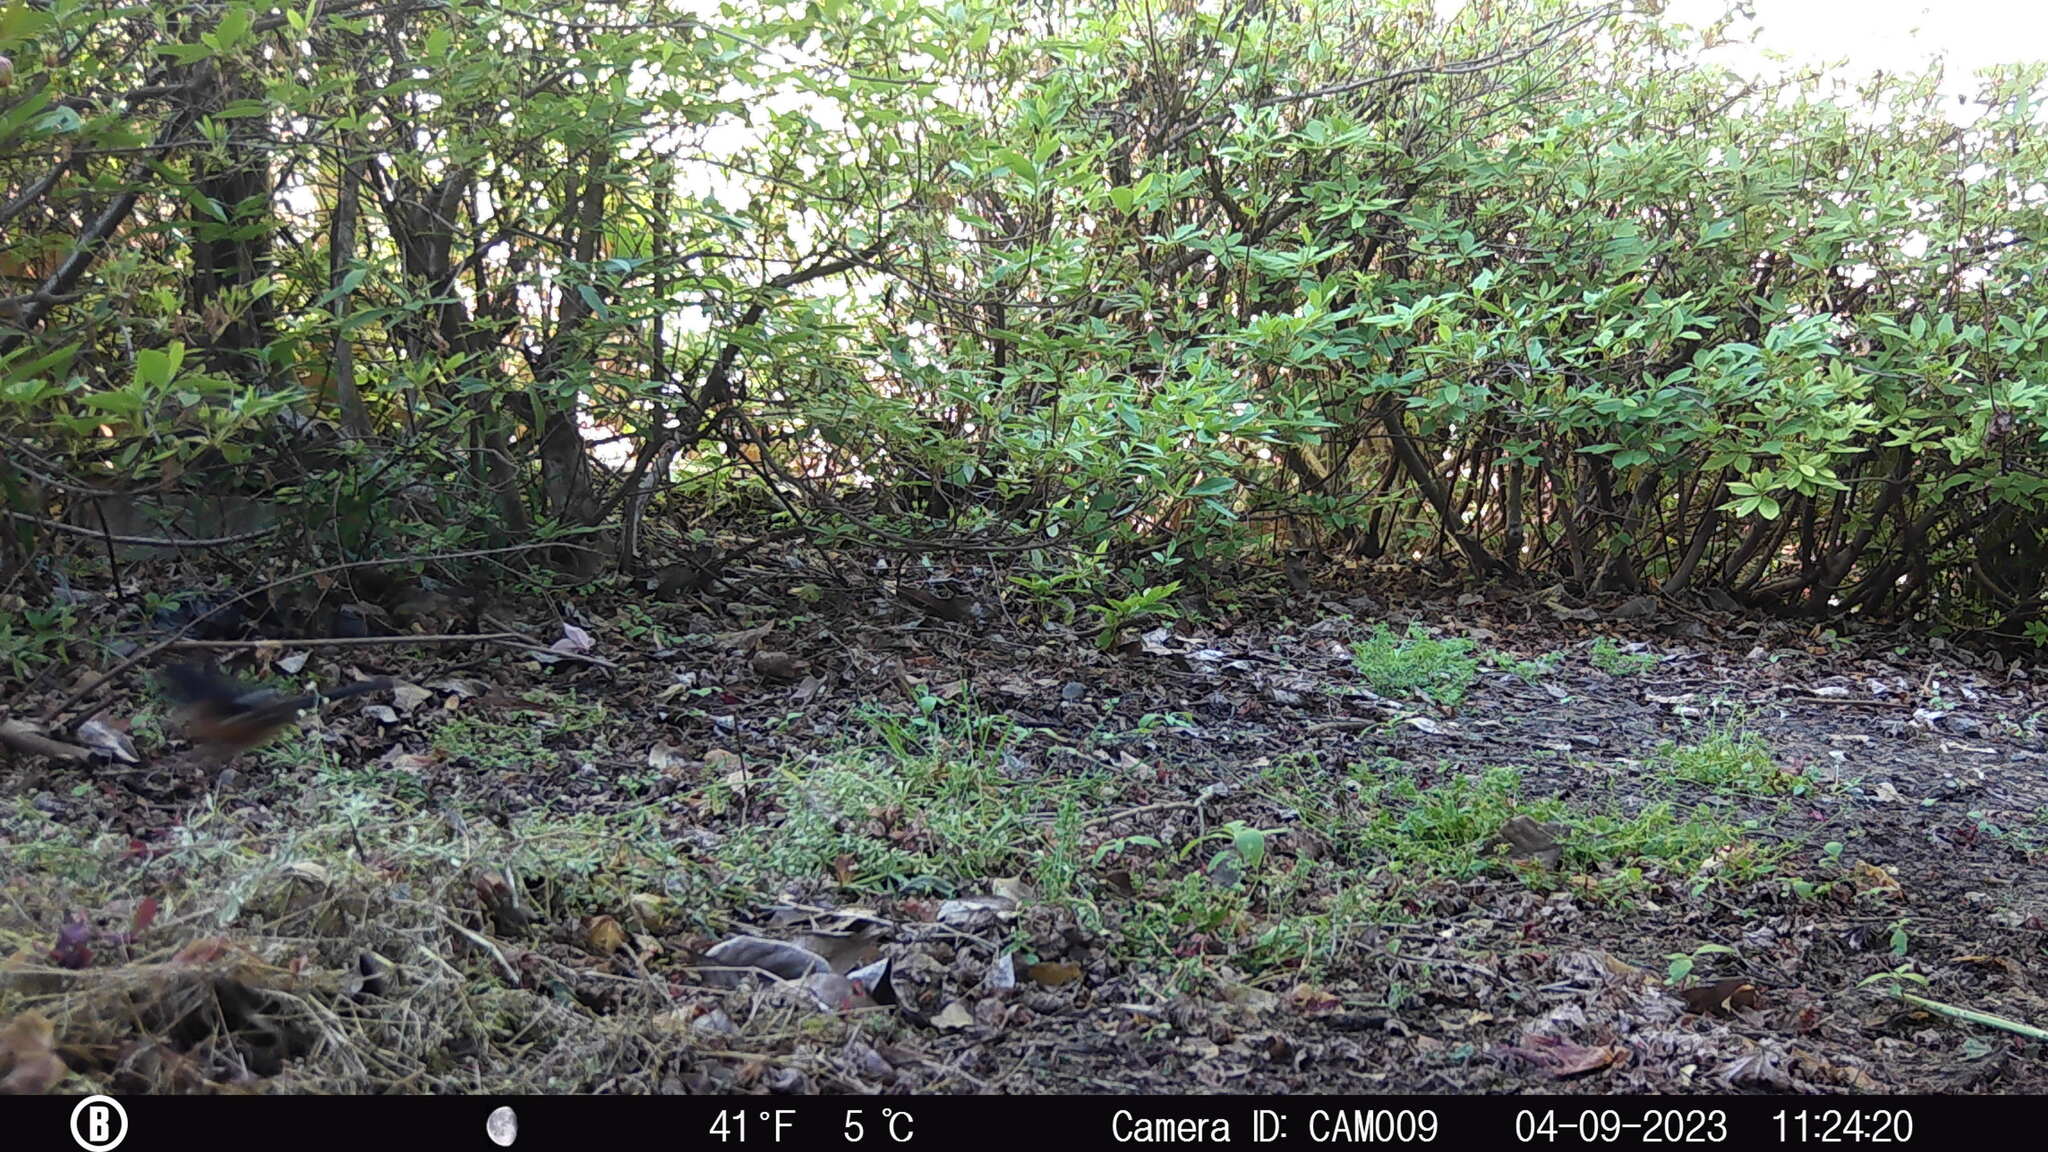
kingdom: Animalia
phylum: Chordata
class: Aves
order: Passeriformes
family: Passerellidae
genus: Pipilo
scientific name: Pipilo erythrophthalmus
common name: Eastern towhee
